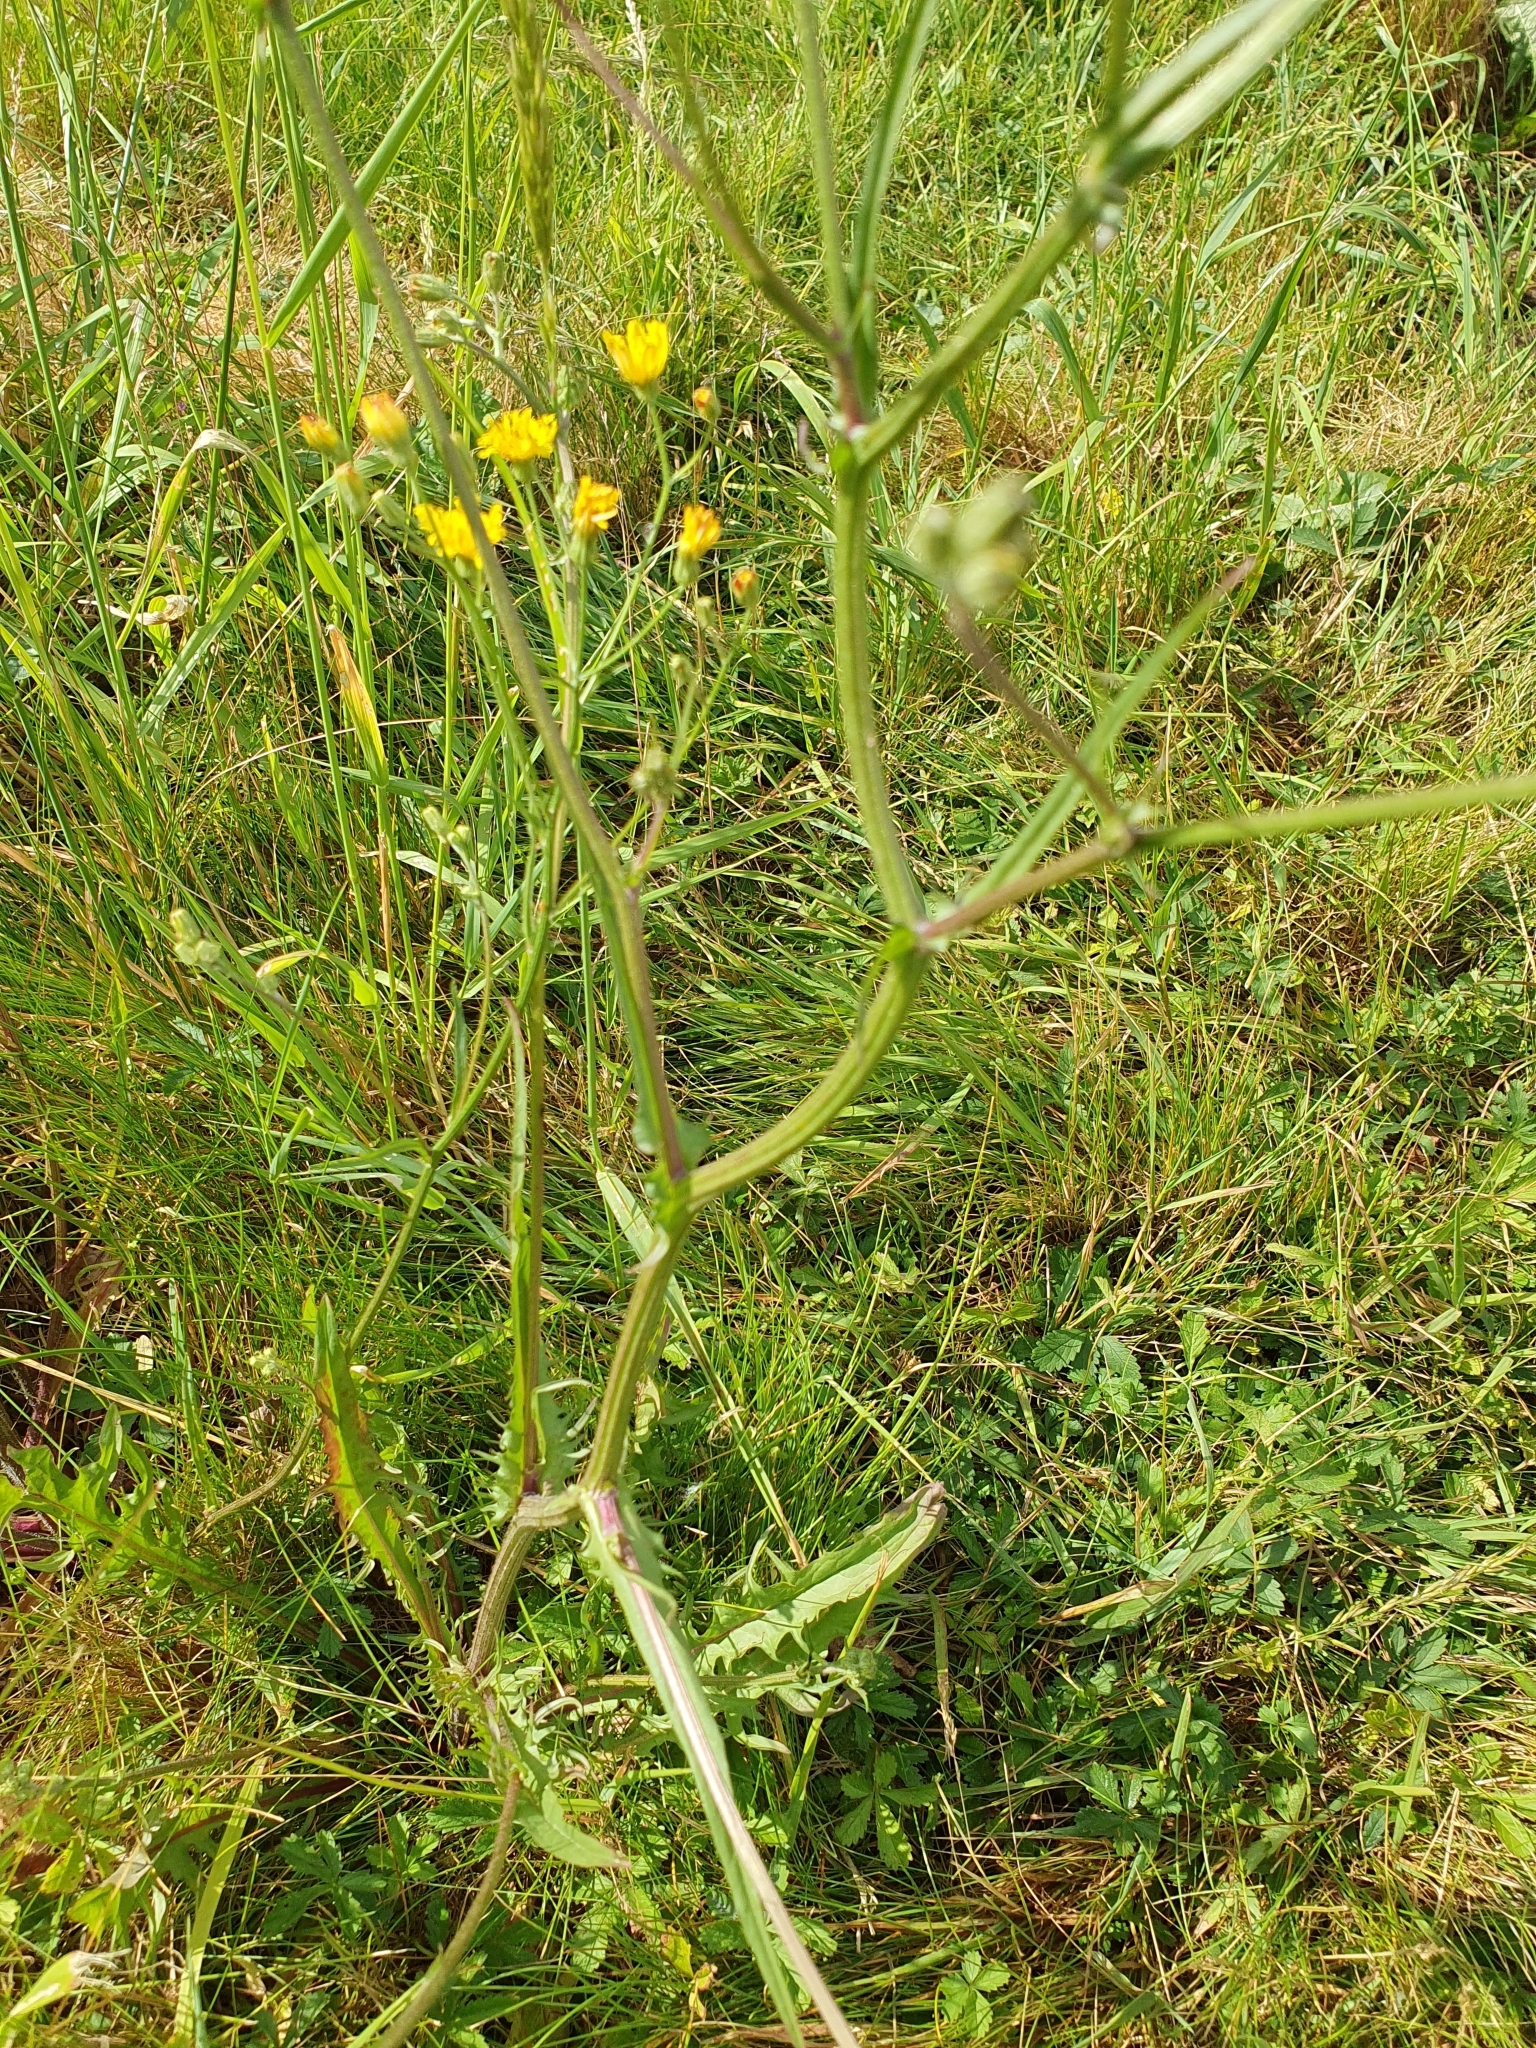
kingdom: Plantae
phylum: Tracheophyta
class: Magnoliopsida
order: Asterales
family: Asteraceae
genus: Crepis
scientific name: Crepis capillaris
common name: Smooth hawksbeard
